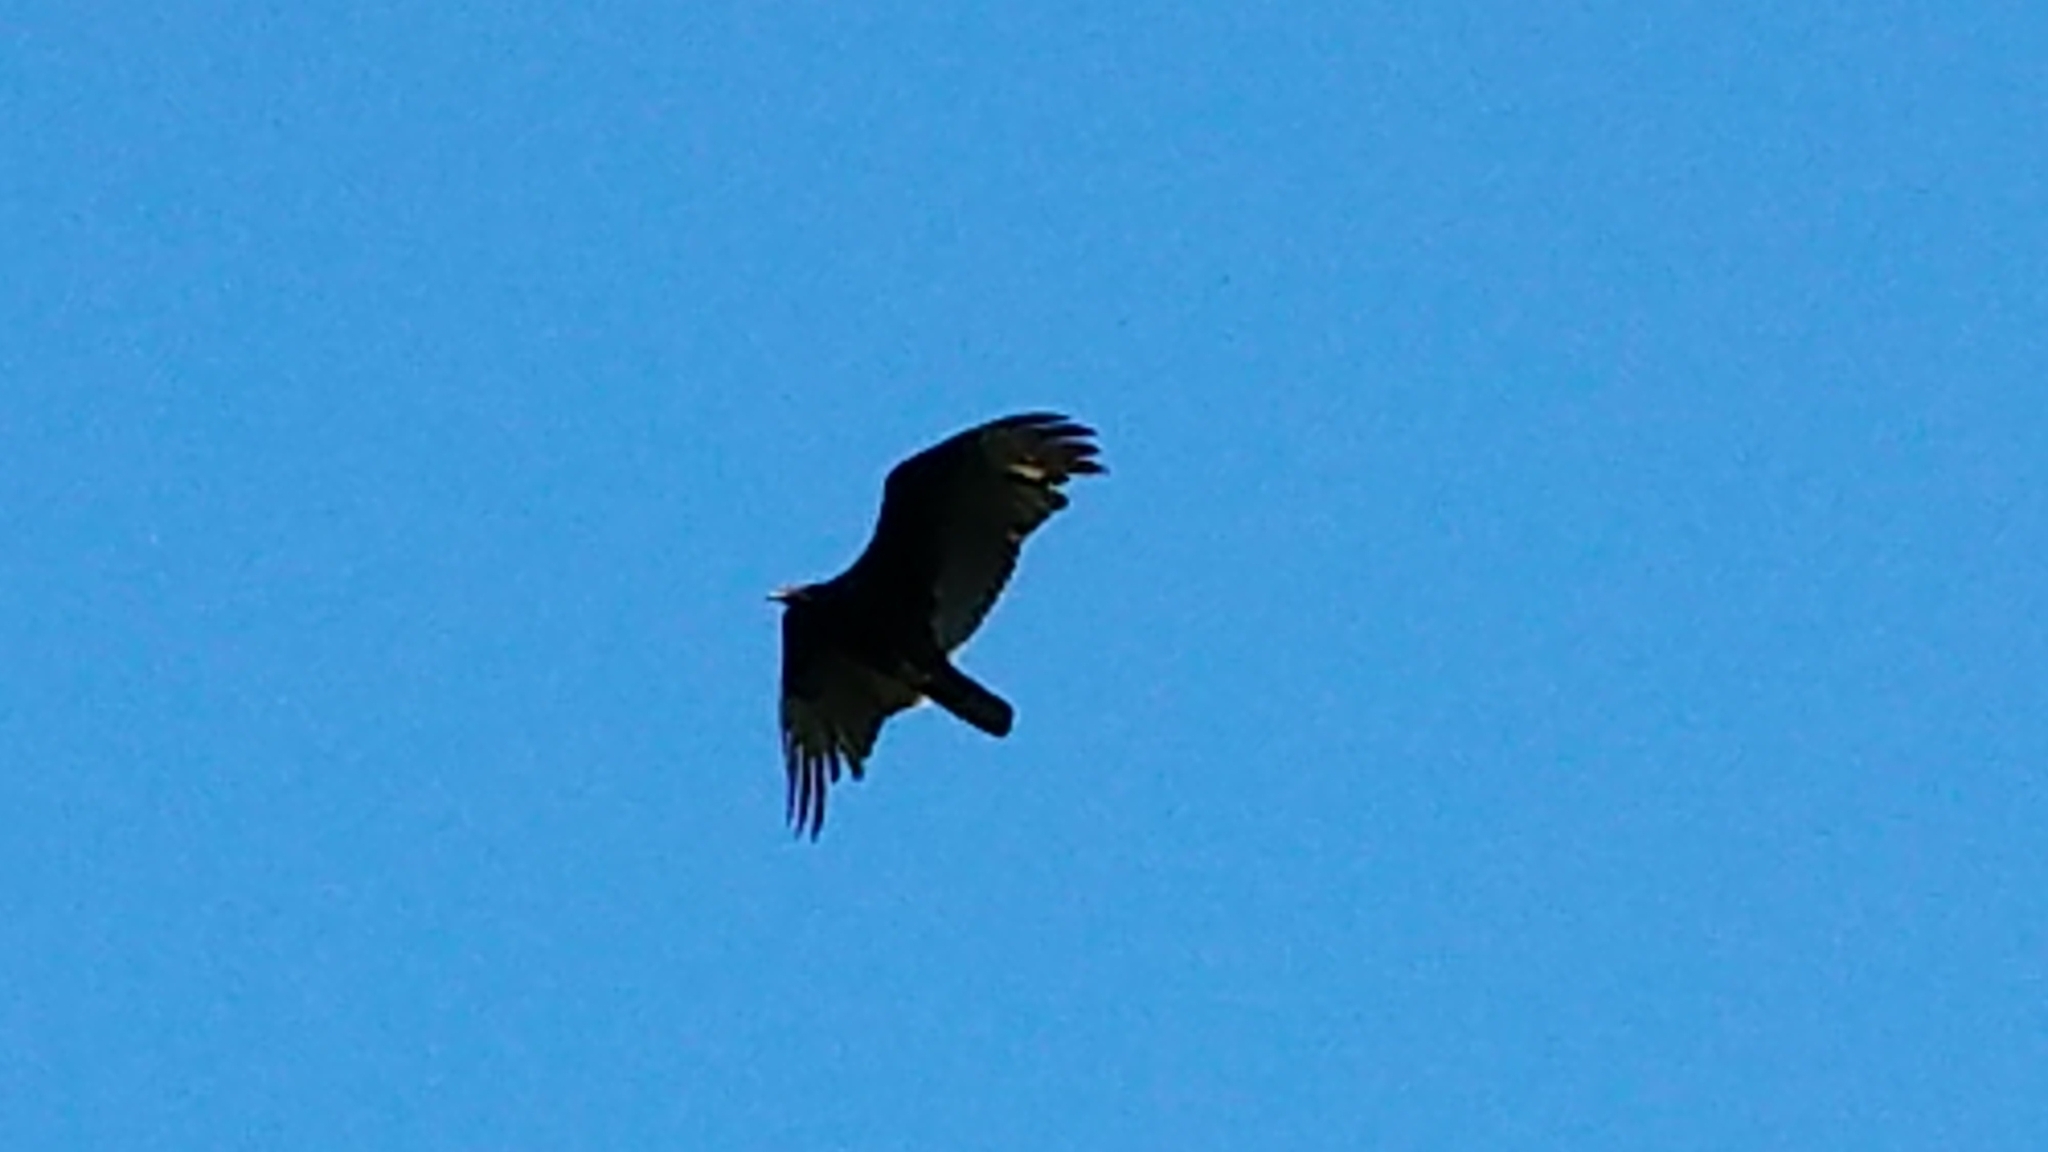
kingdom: Animalia
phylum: Chordata
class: Aves
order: Accipitriformes
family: Cathartidae
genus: Cathartes
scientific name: Cathartes aura
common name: Turkey vulture
